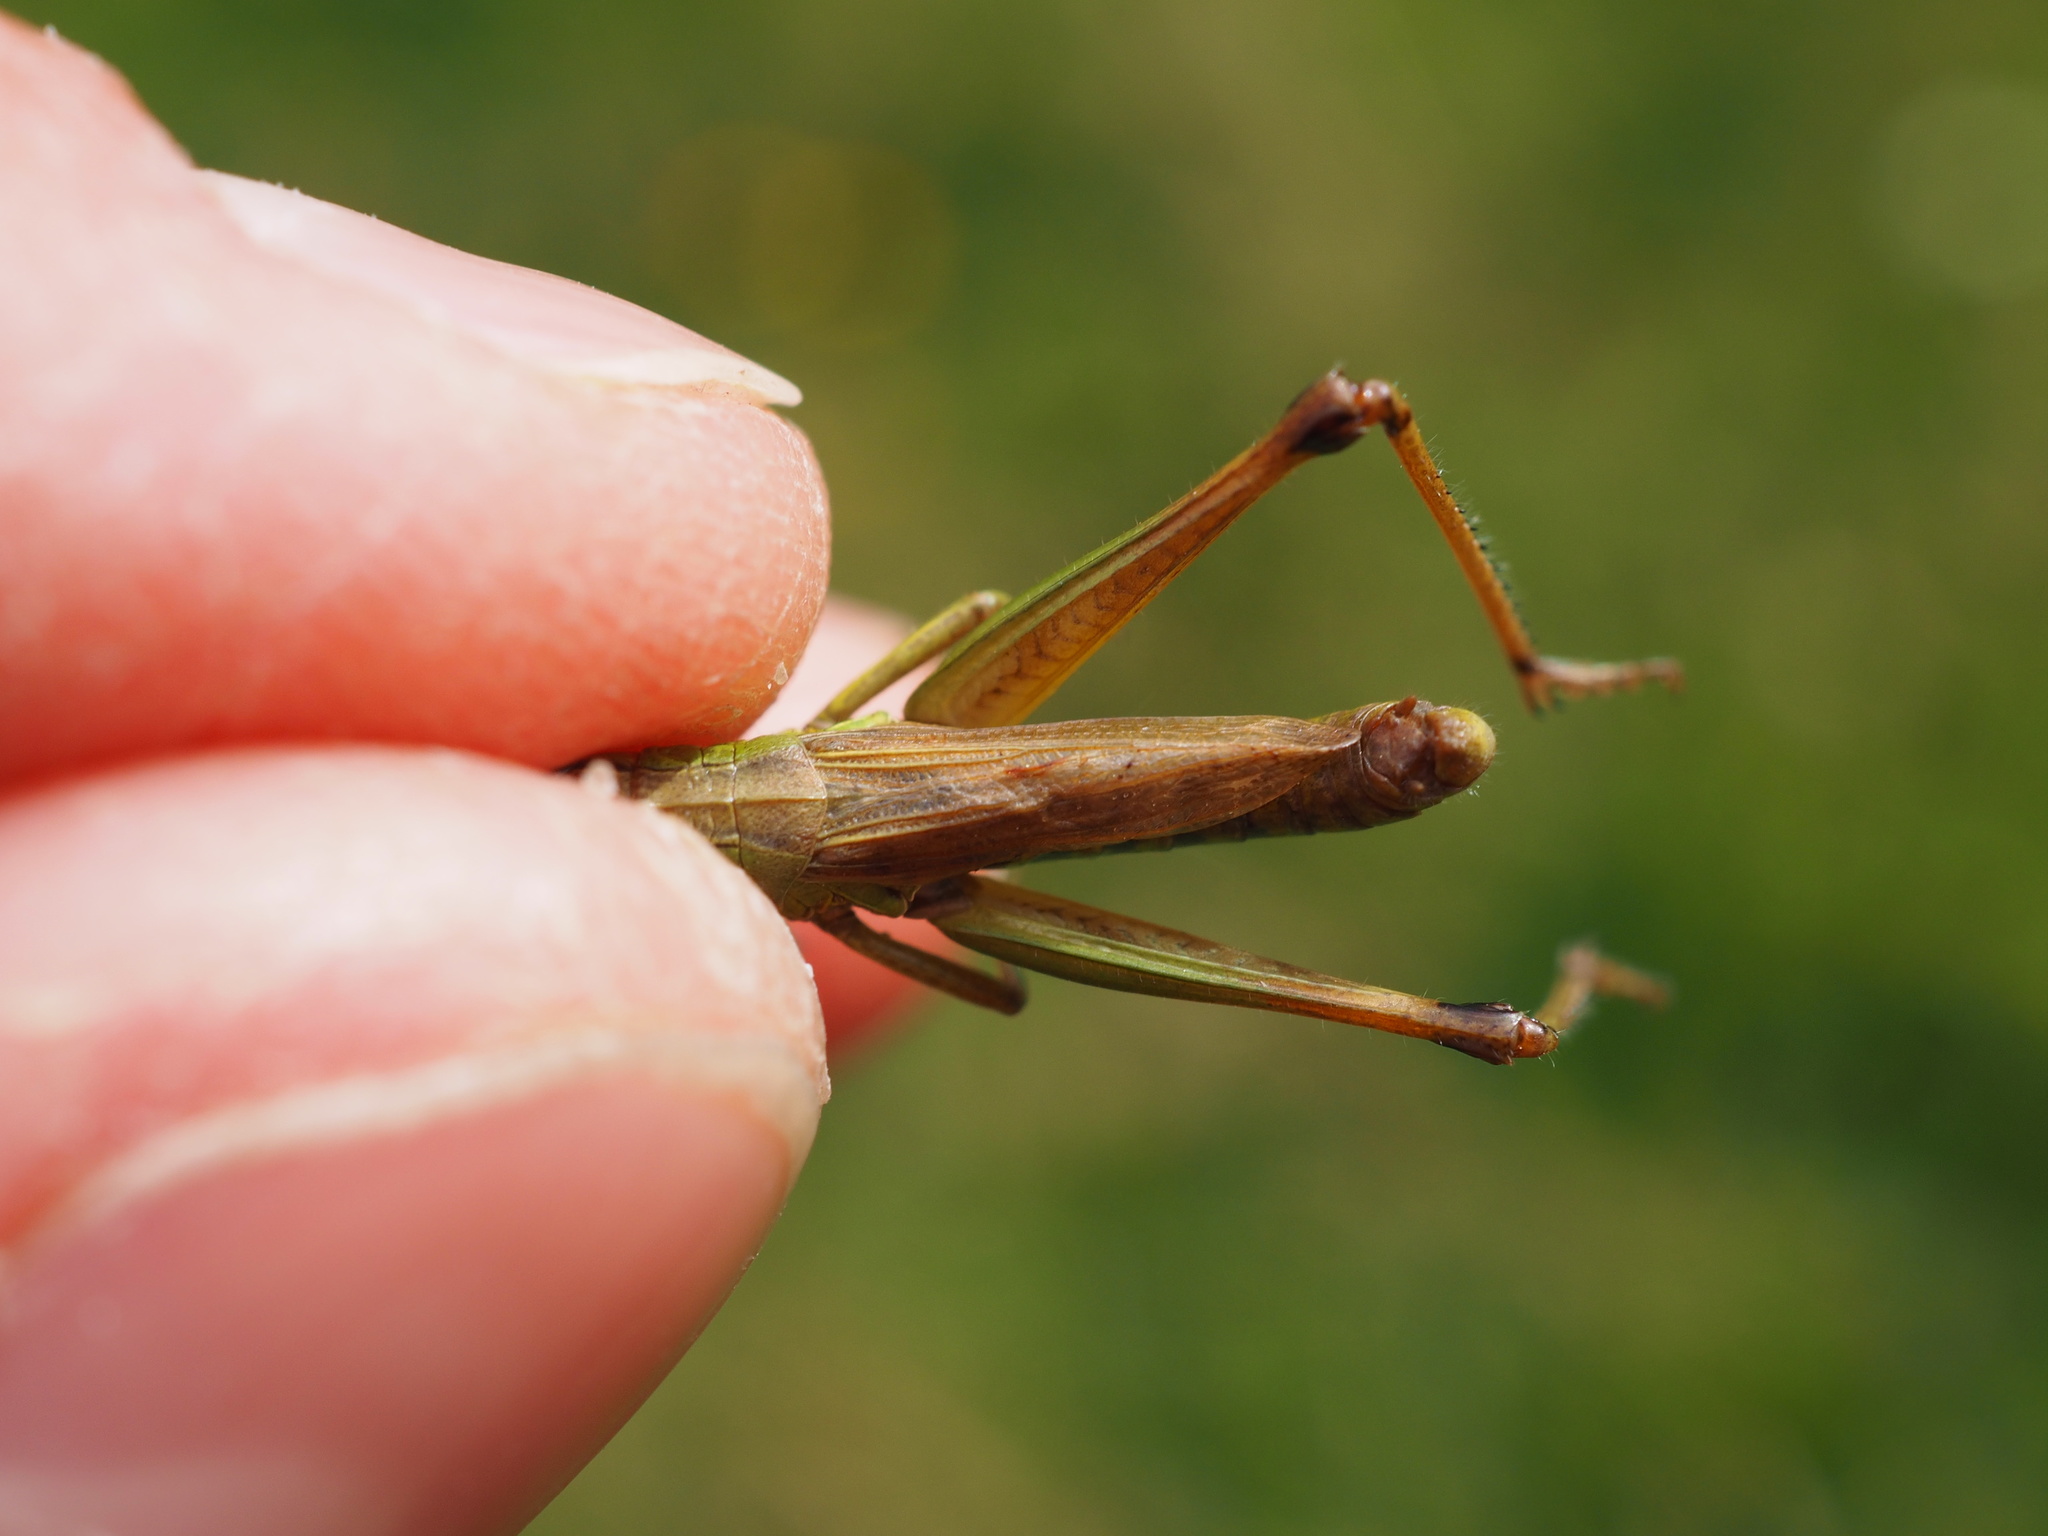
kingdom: Animalia
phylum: Arthropoda
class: Insecta
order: Orthoptera
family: Acrididae
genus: Pseudochorthippus
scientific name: Pseudochorthippus parallelus
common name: Meadow grasshopper
